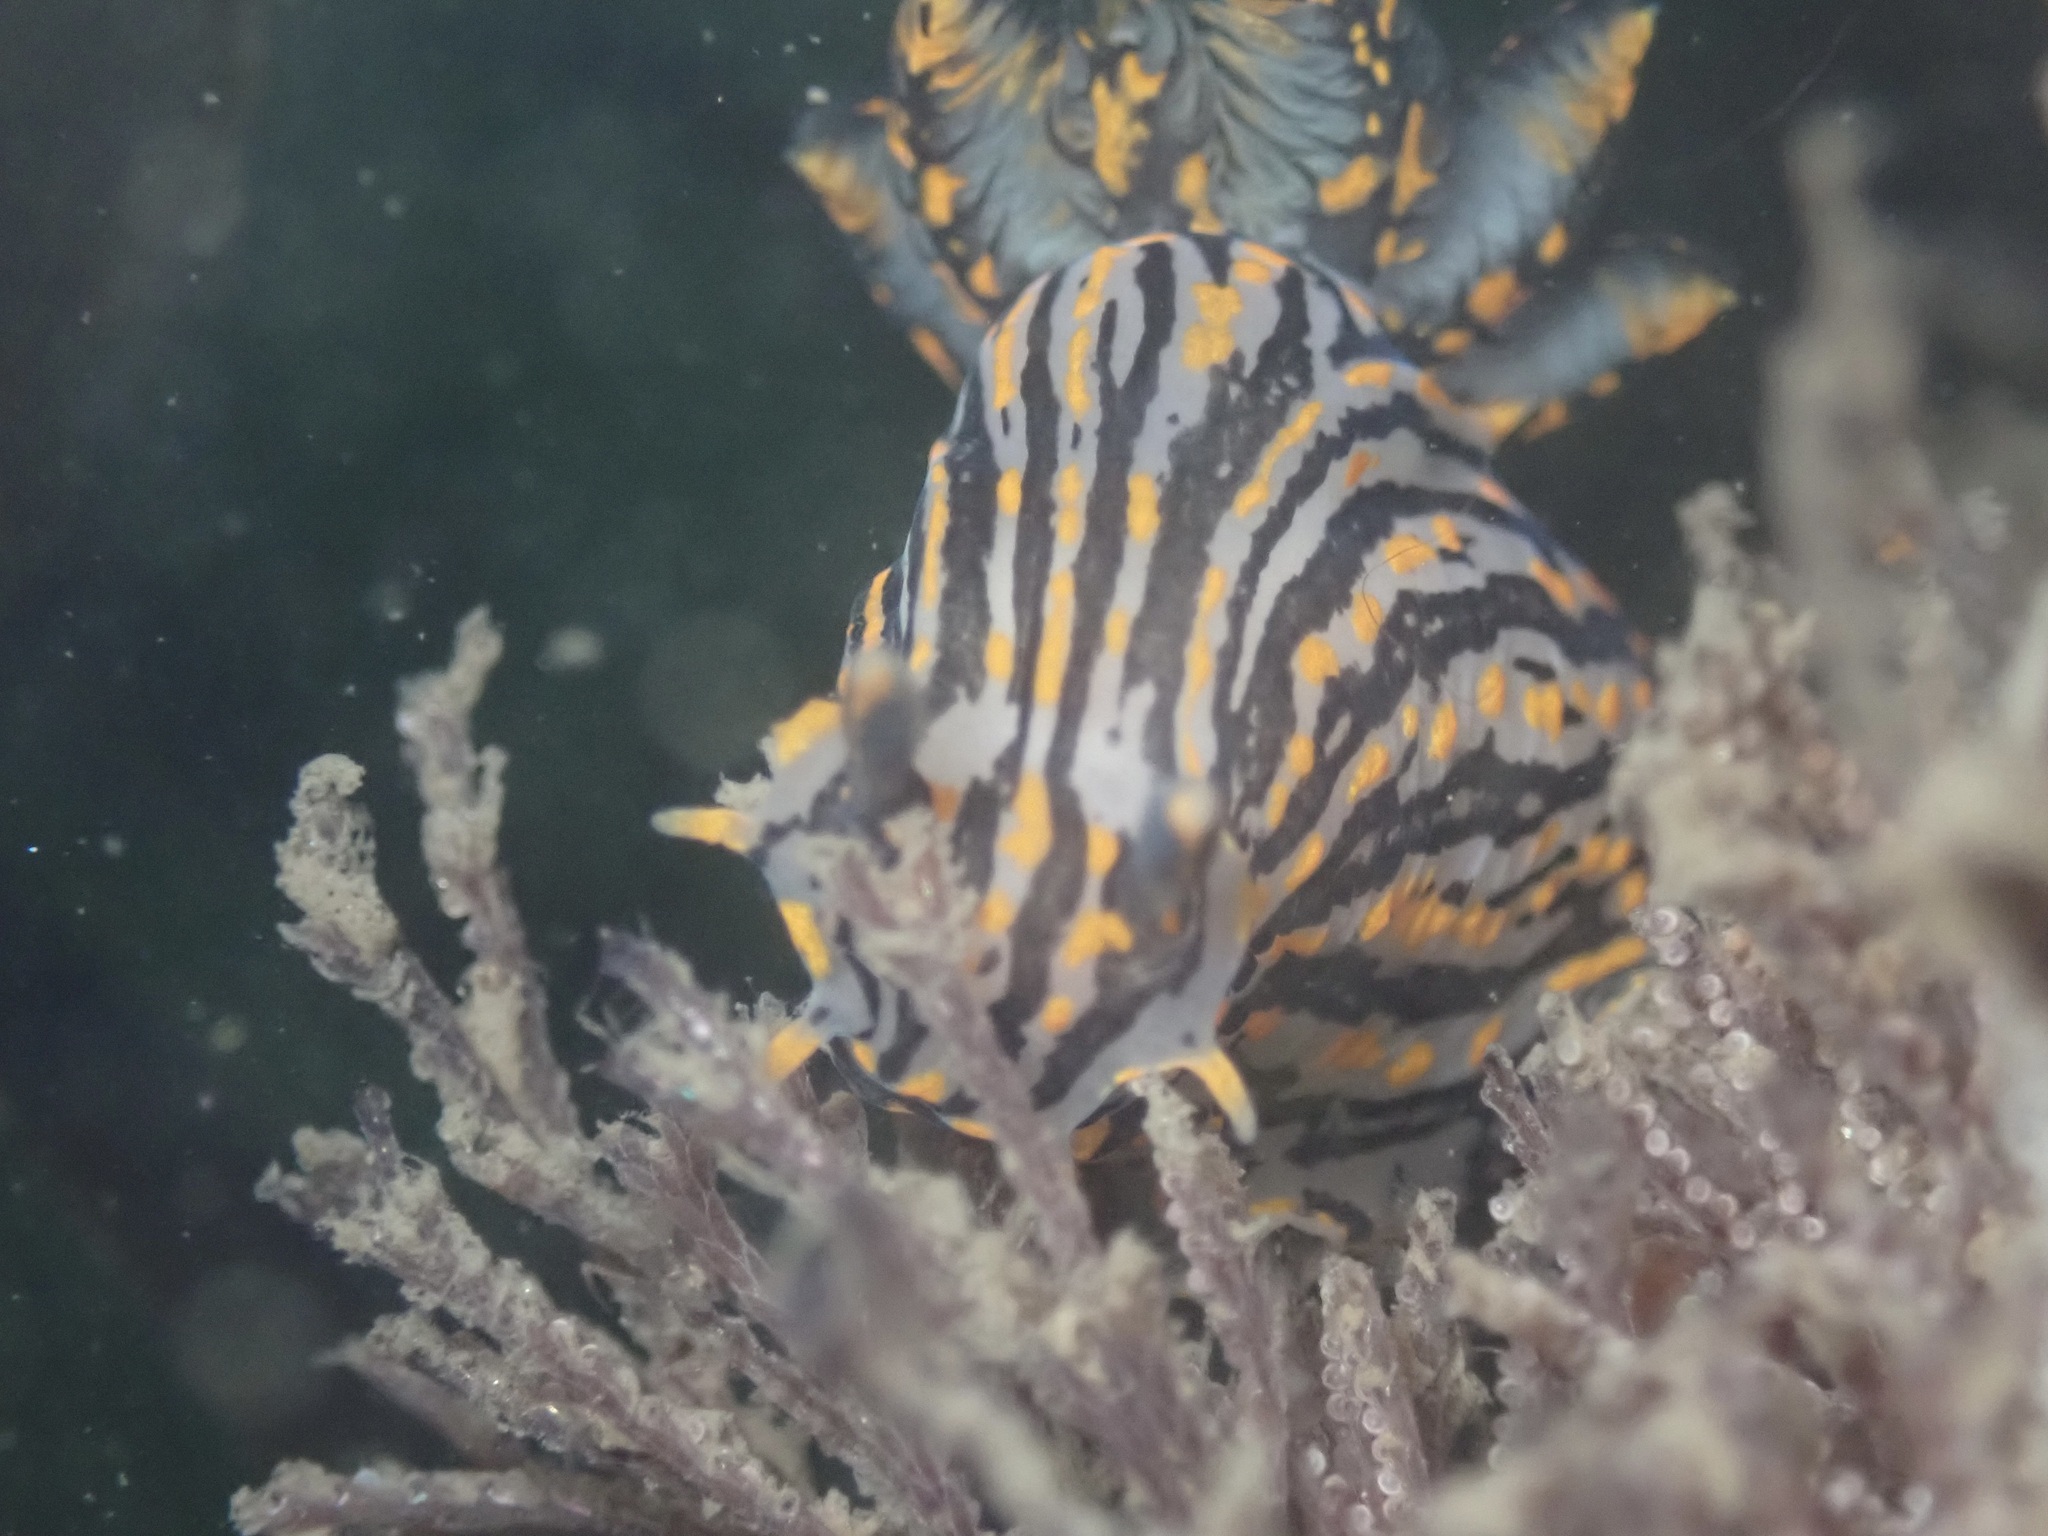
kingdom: Animalia
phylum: Mollusca
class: Gastropoda
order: Nudibranchia
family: Polyceridae
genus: Polycera
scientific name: Polycera atra
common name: Orange-spike polycera
